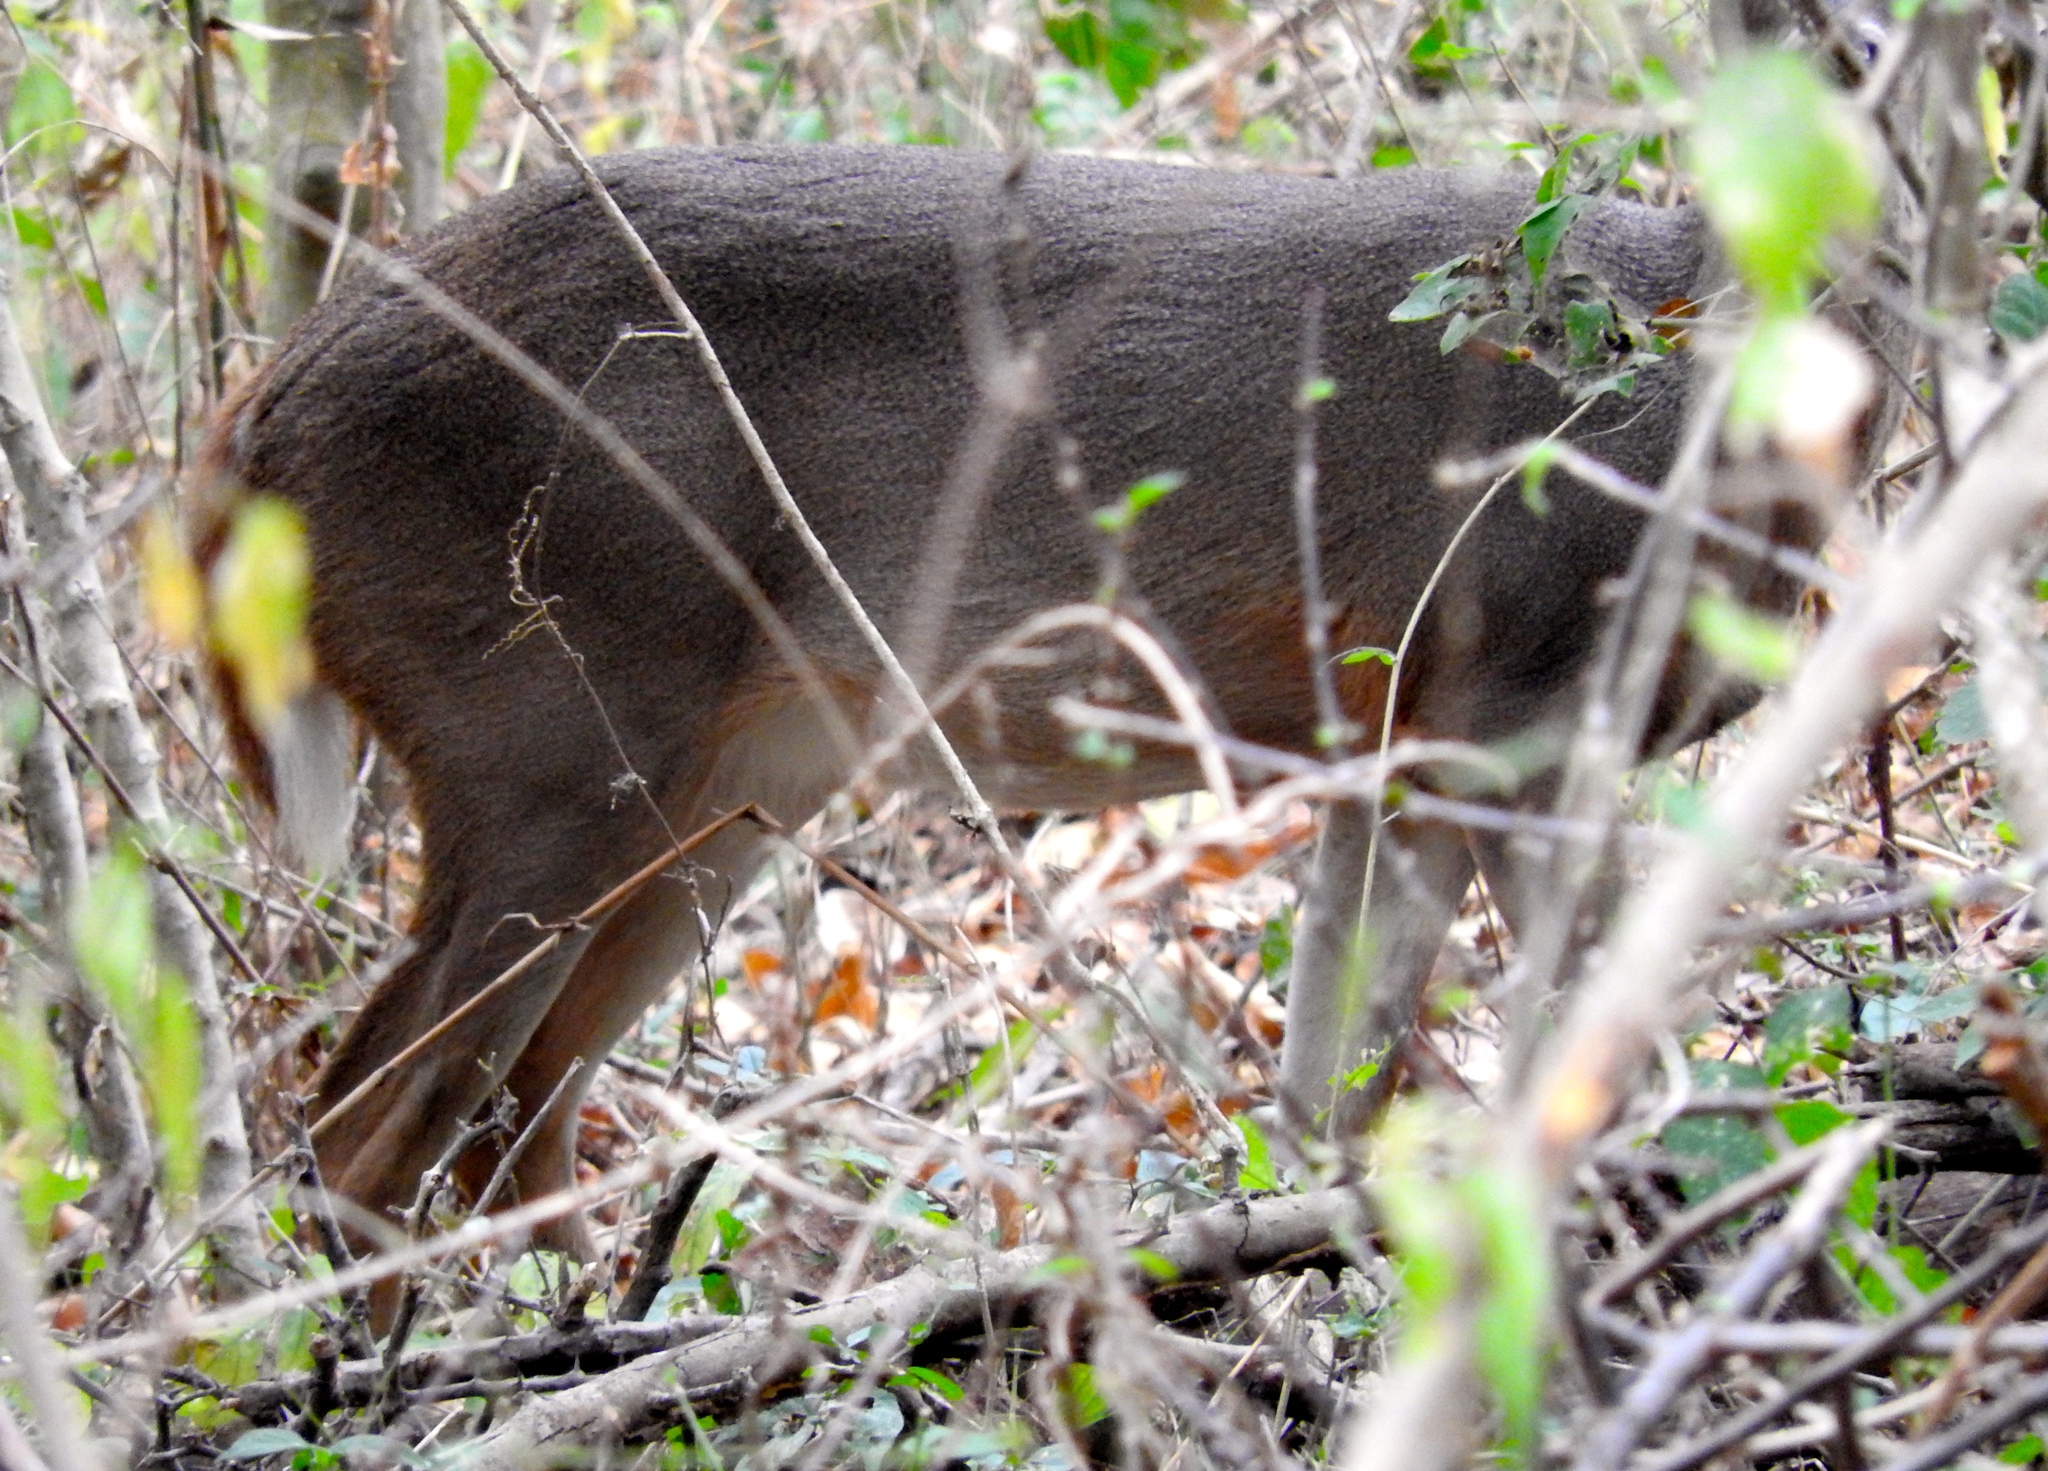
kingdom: Animalia
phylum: Chordata
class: Mammalia
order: Artiodactyla
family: Cervidae
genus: Odocoileus
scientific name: Odocoileus virginianus
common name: White-tailed deer
